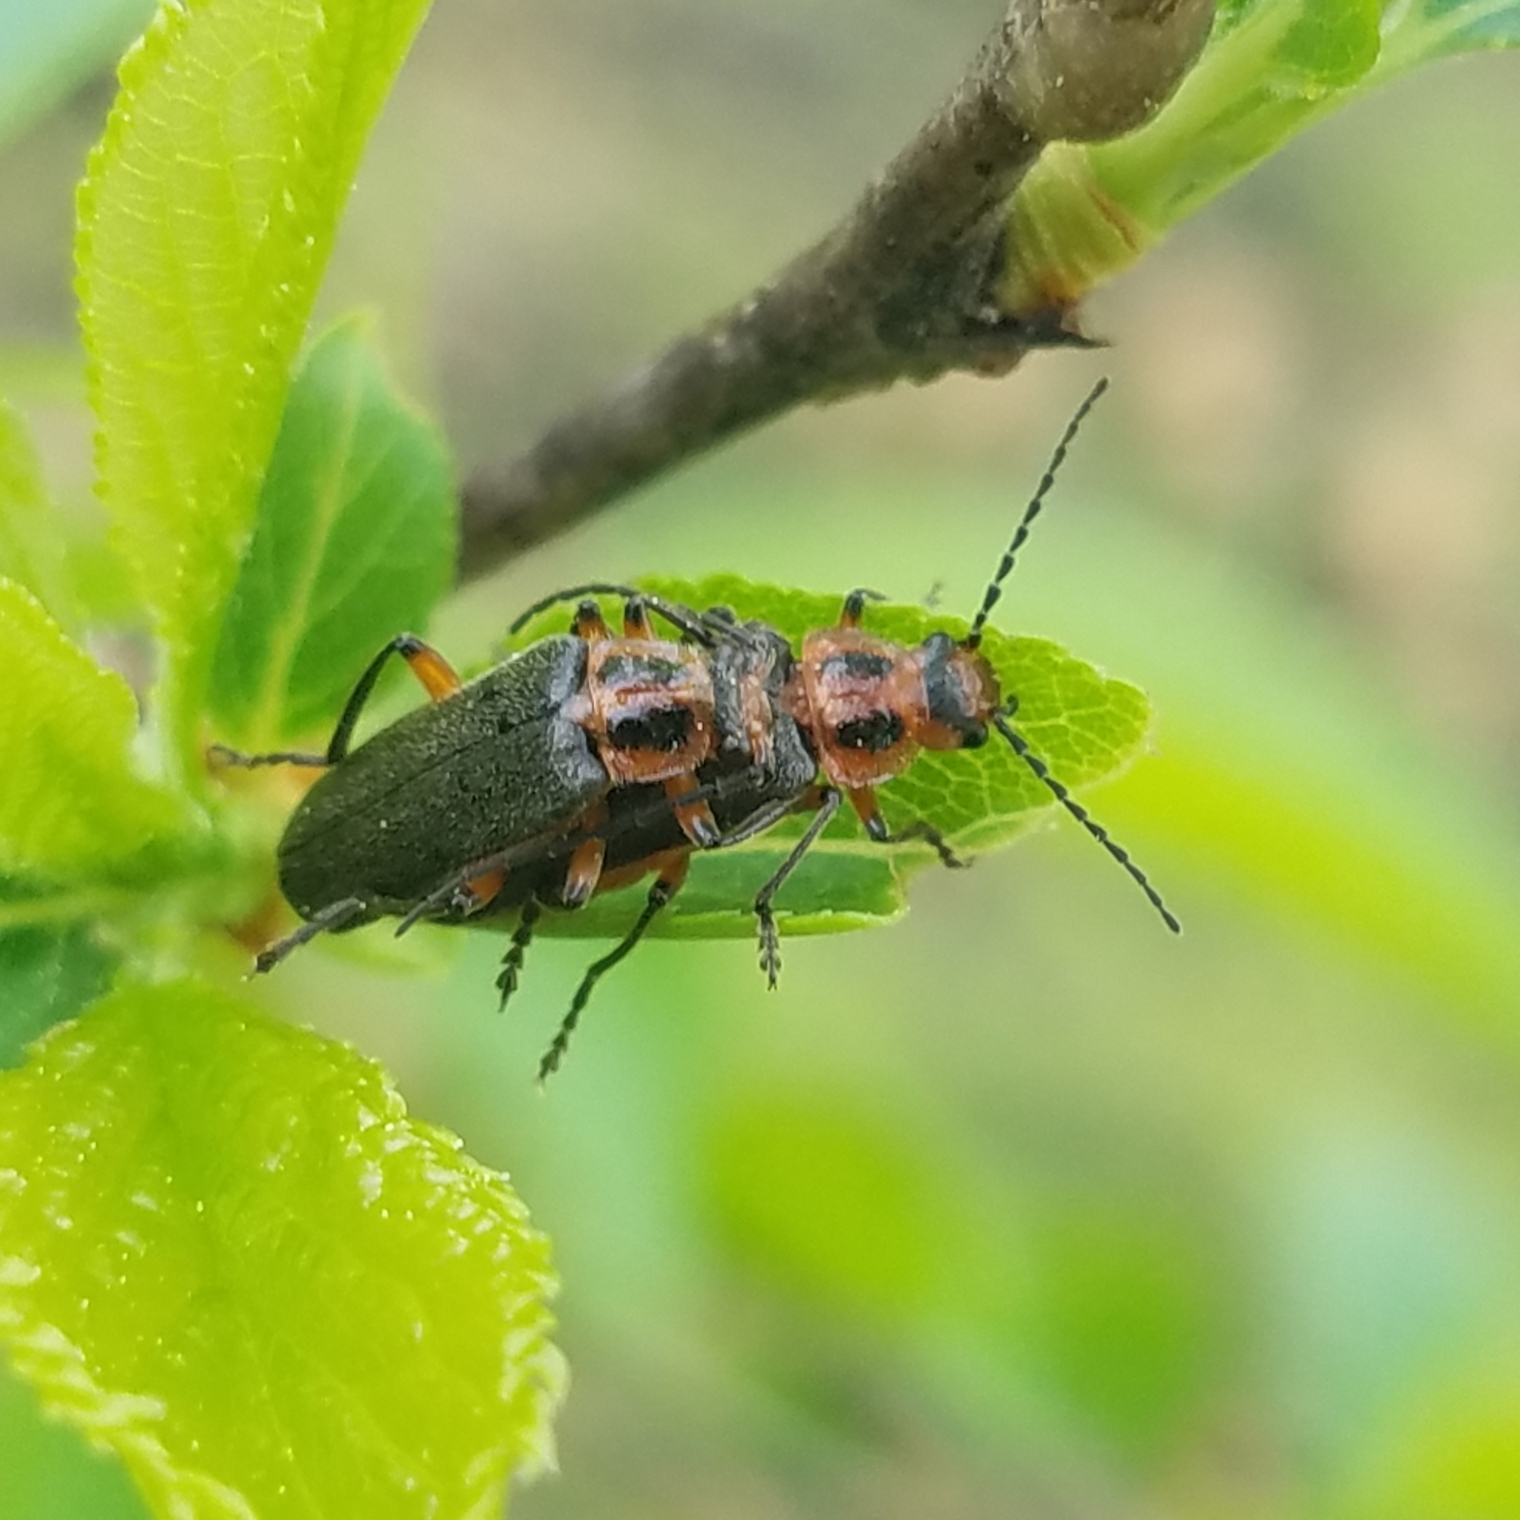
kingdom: Animalia
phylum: Arthropoda
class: Insecta
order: Coleoptera
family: Cantharidae
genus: Atalantycha
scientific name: Atalantycha bilineata
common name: Two-lined leatherwing
